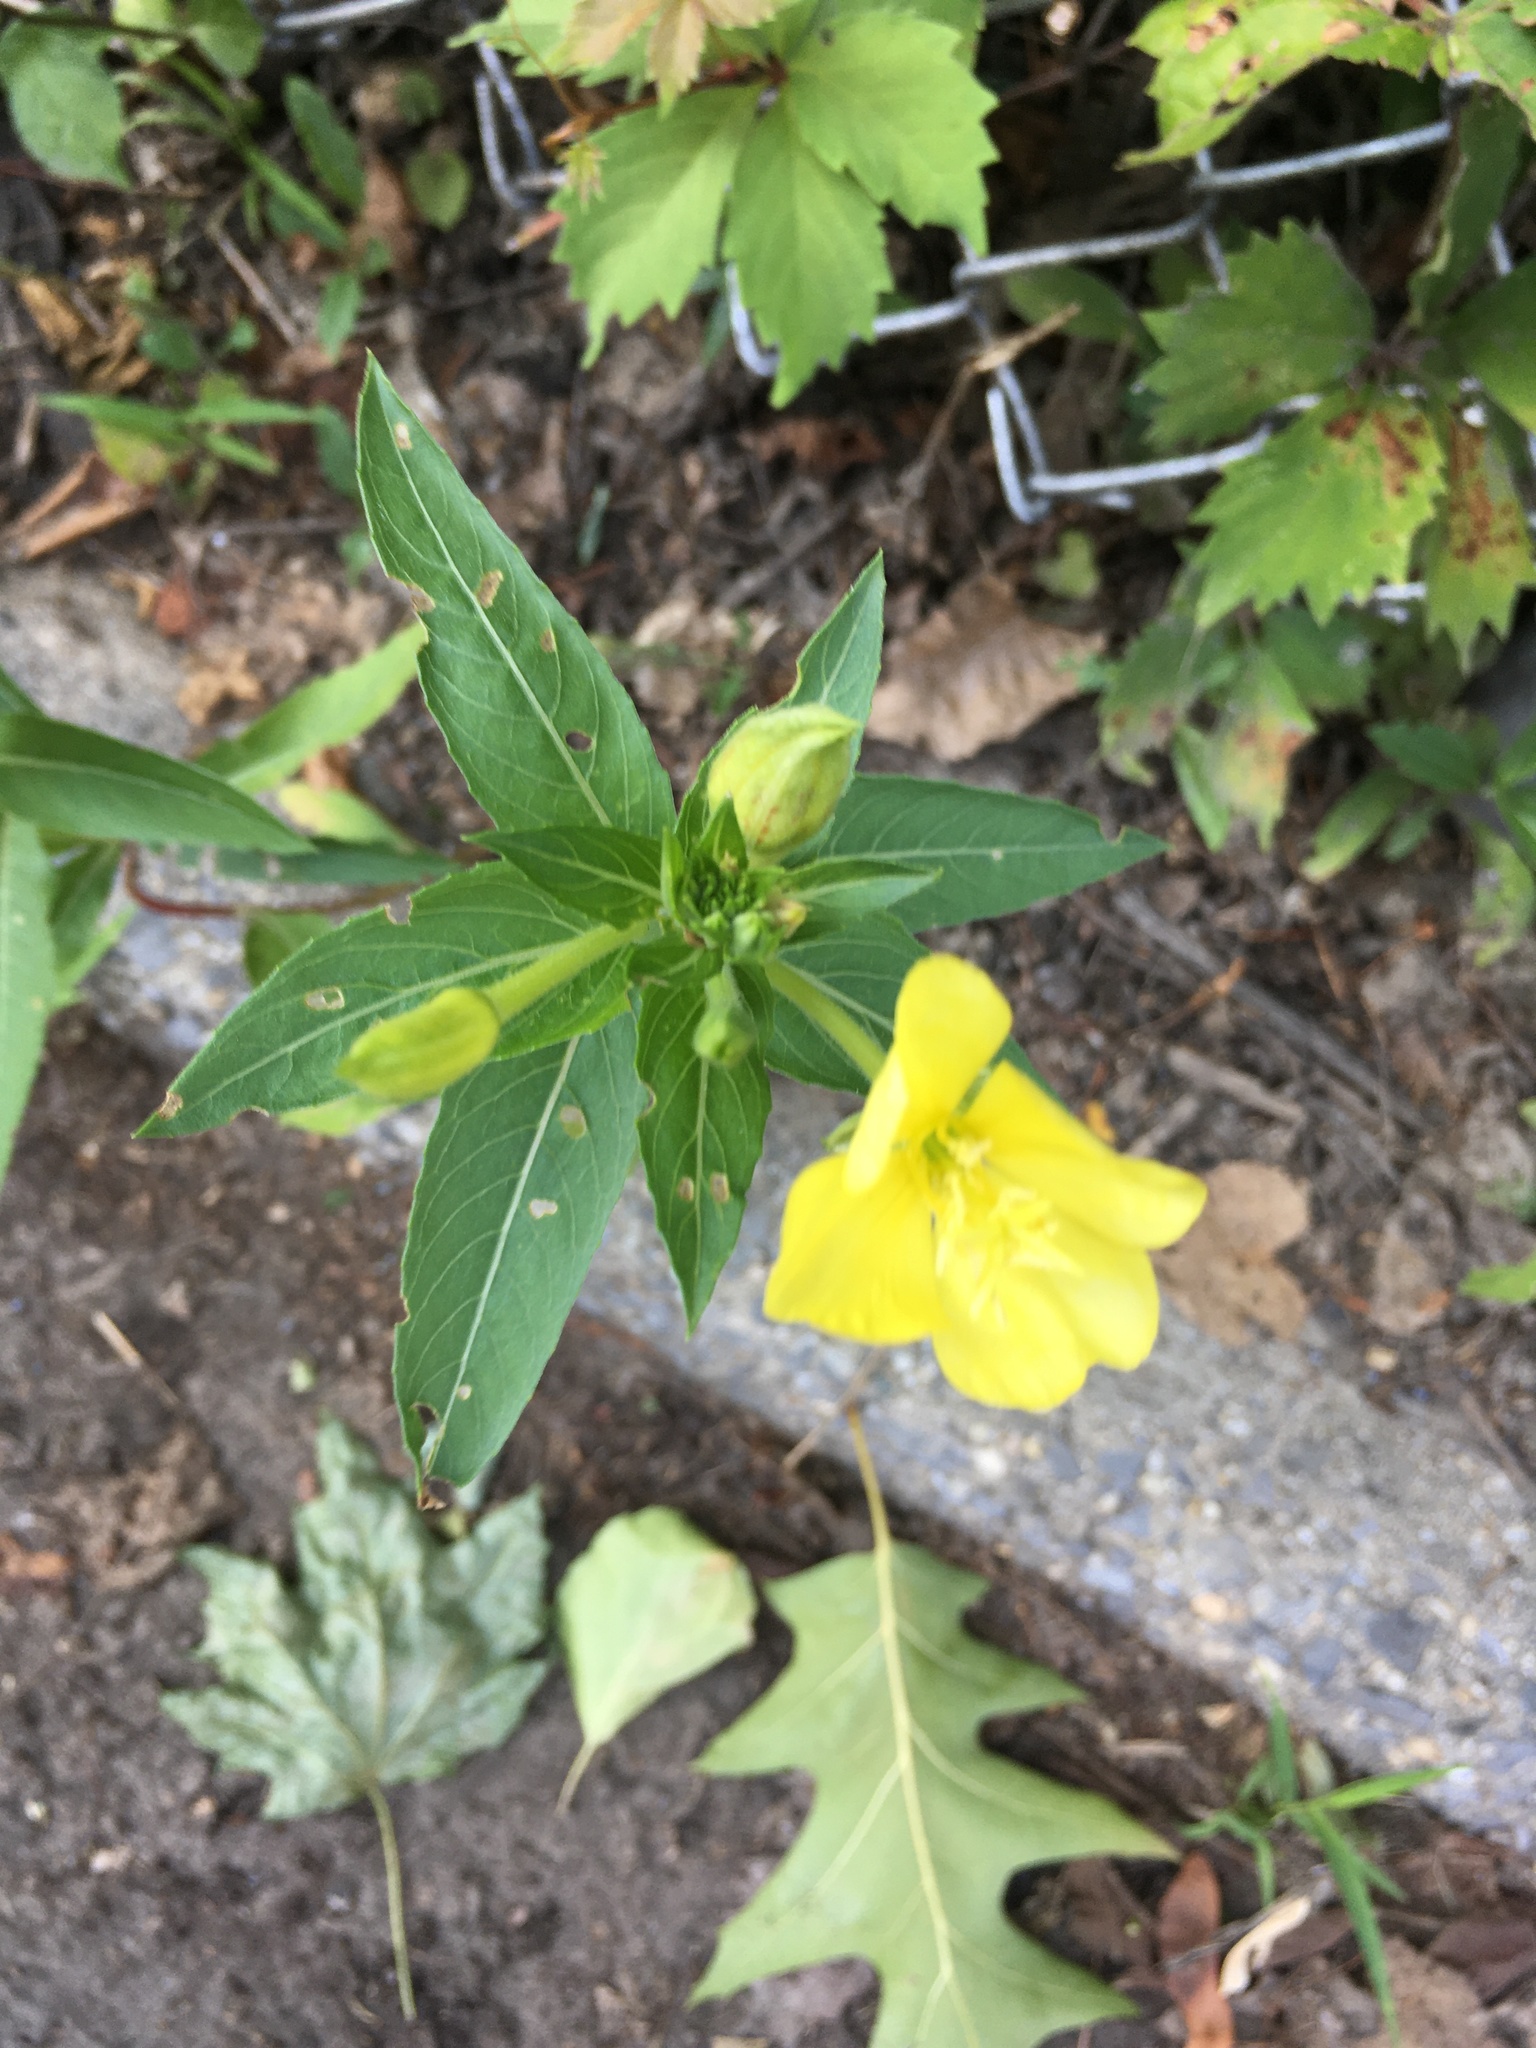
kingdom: Plantae
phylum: Tracheophyta
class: Magnoliopsida
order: Myrtales
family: Onagraceae
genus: Oenothera
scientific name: Oenothera biennis
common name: Common evening-primrose
